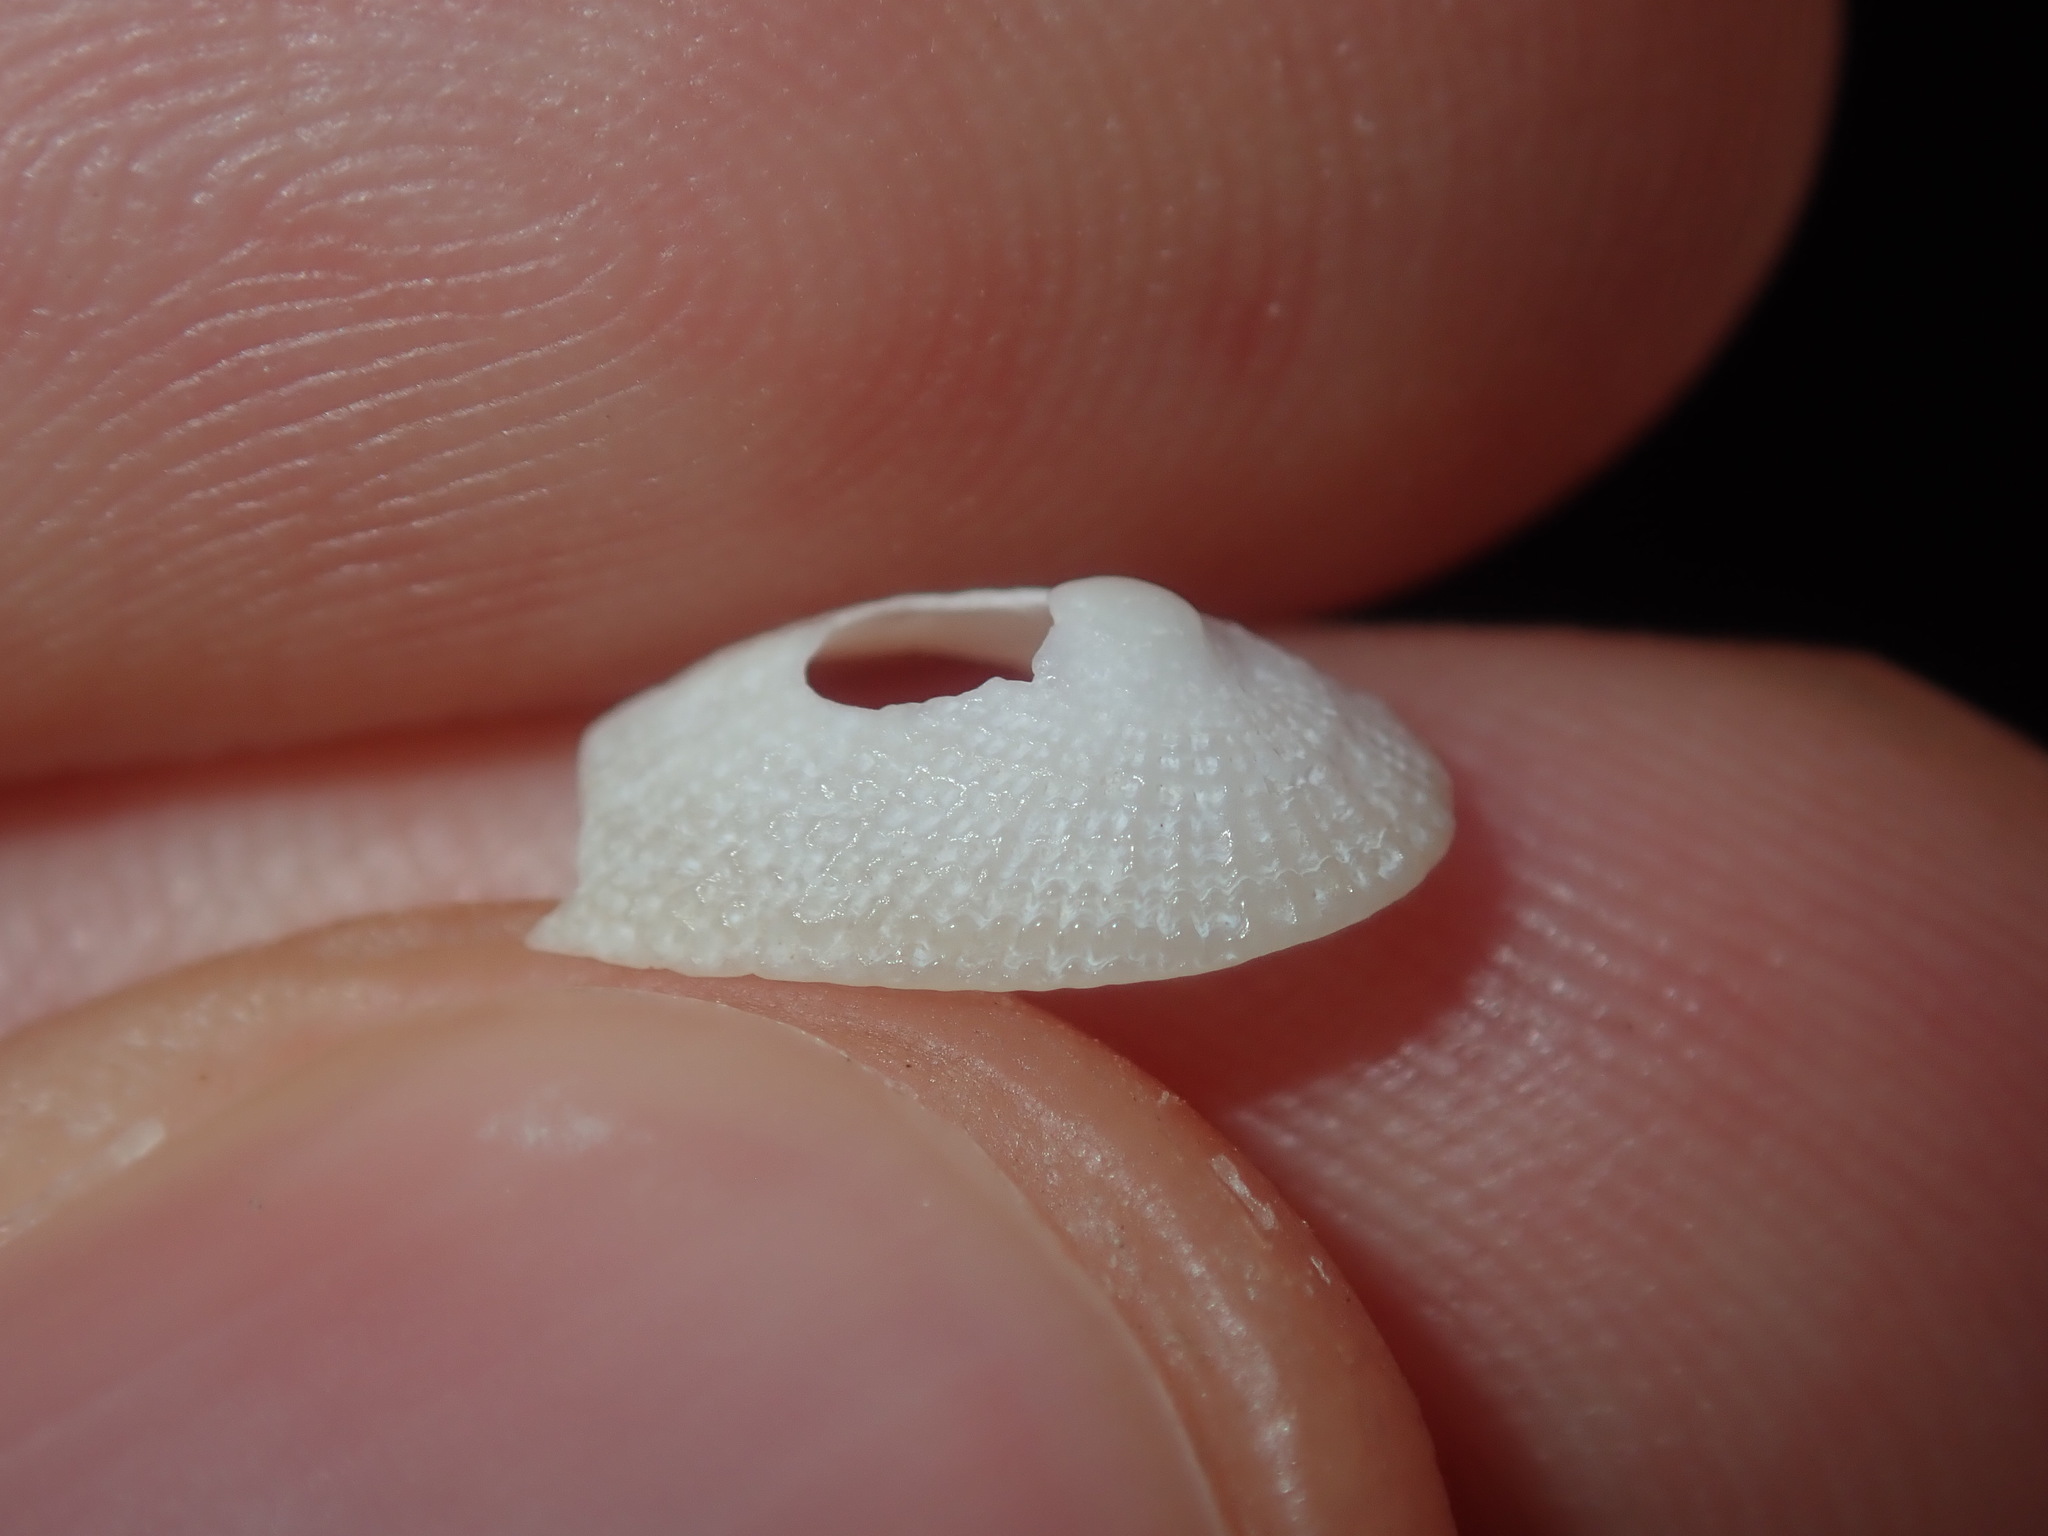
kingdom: Animalia
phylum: Mollusca
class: Gastropoda
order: Lepetellida
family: Fissurellidae
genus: Tugali
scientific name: Tugali parmophoidea
